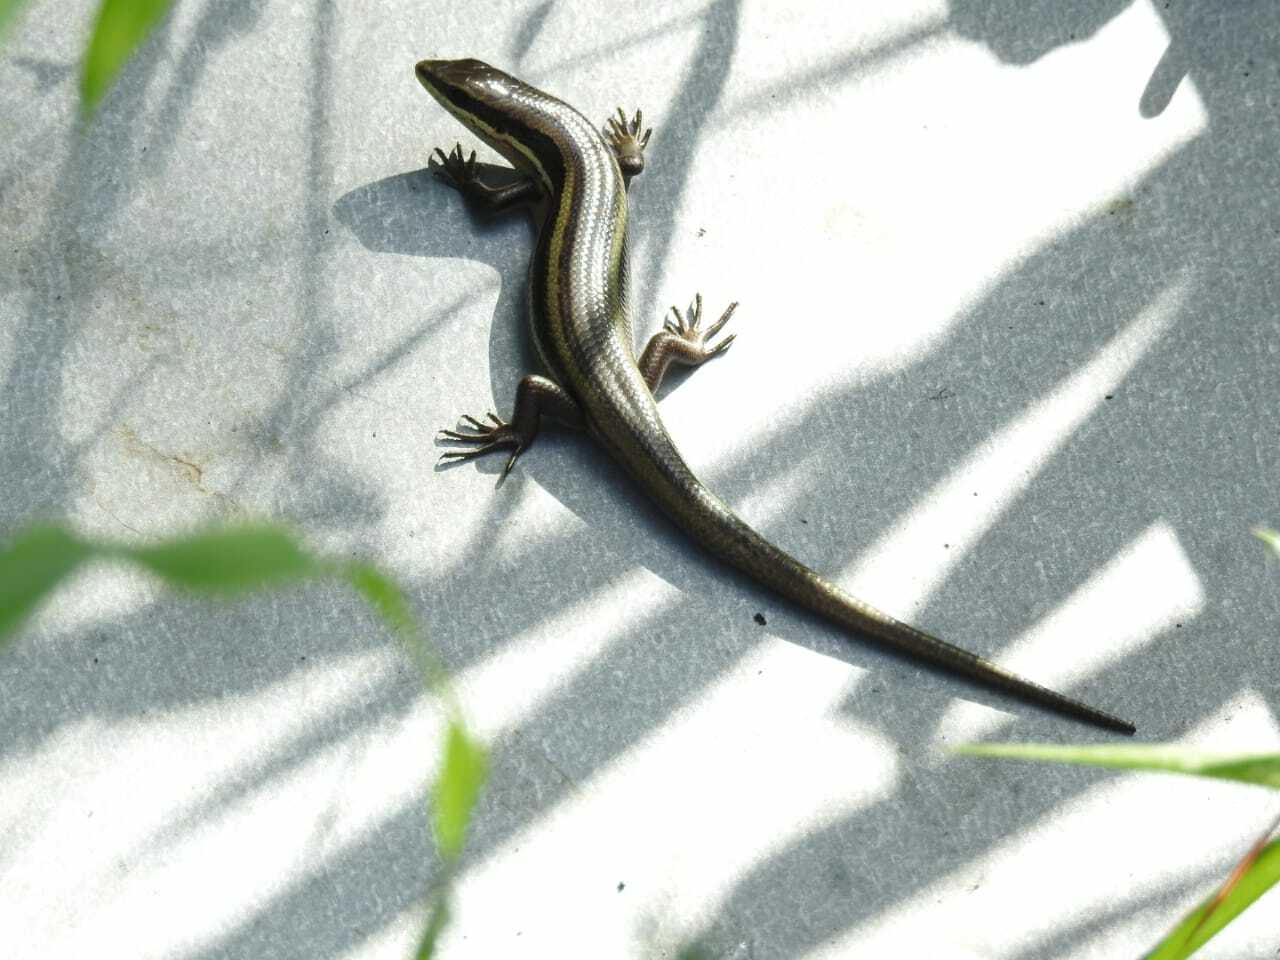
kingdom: Animalia
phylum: Chordata
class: Squamata
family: Scincidae
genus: Marisora
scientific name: Marisora alliacea
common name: Middle american four-lined skink
